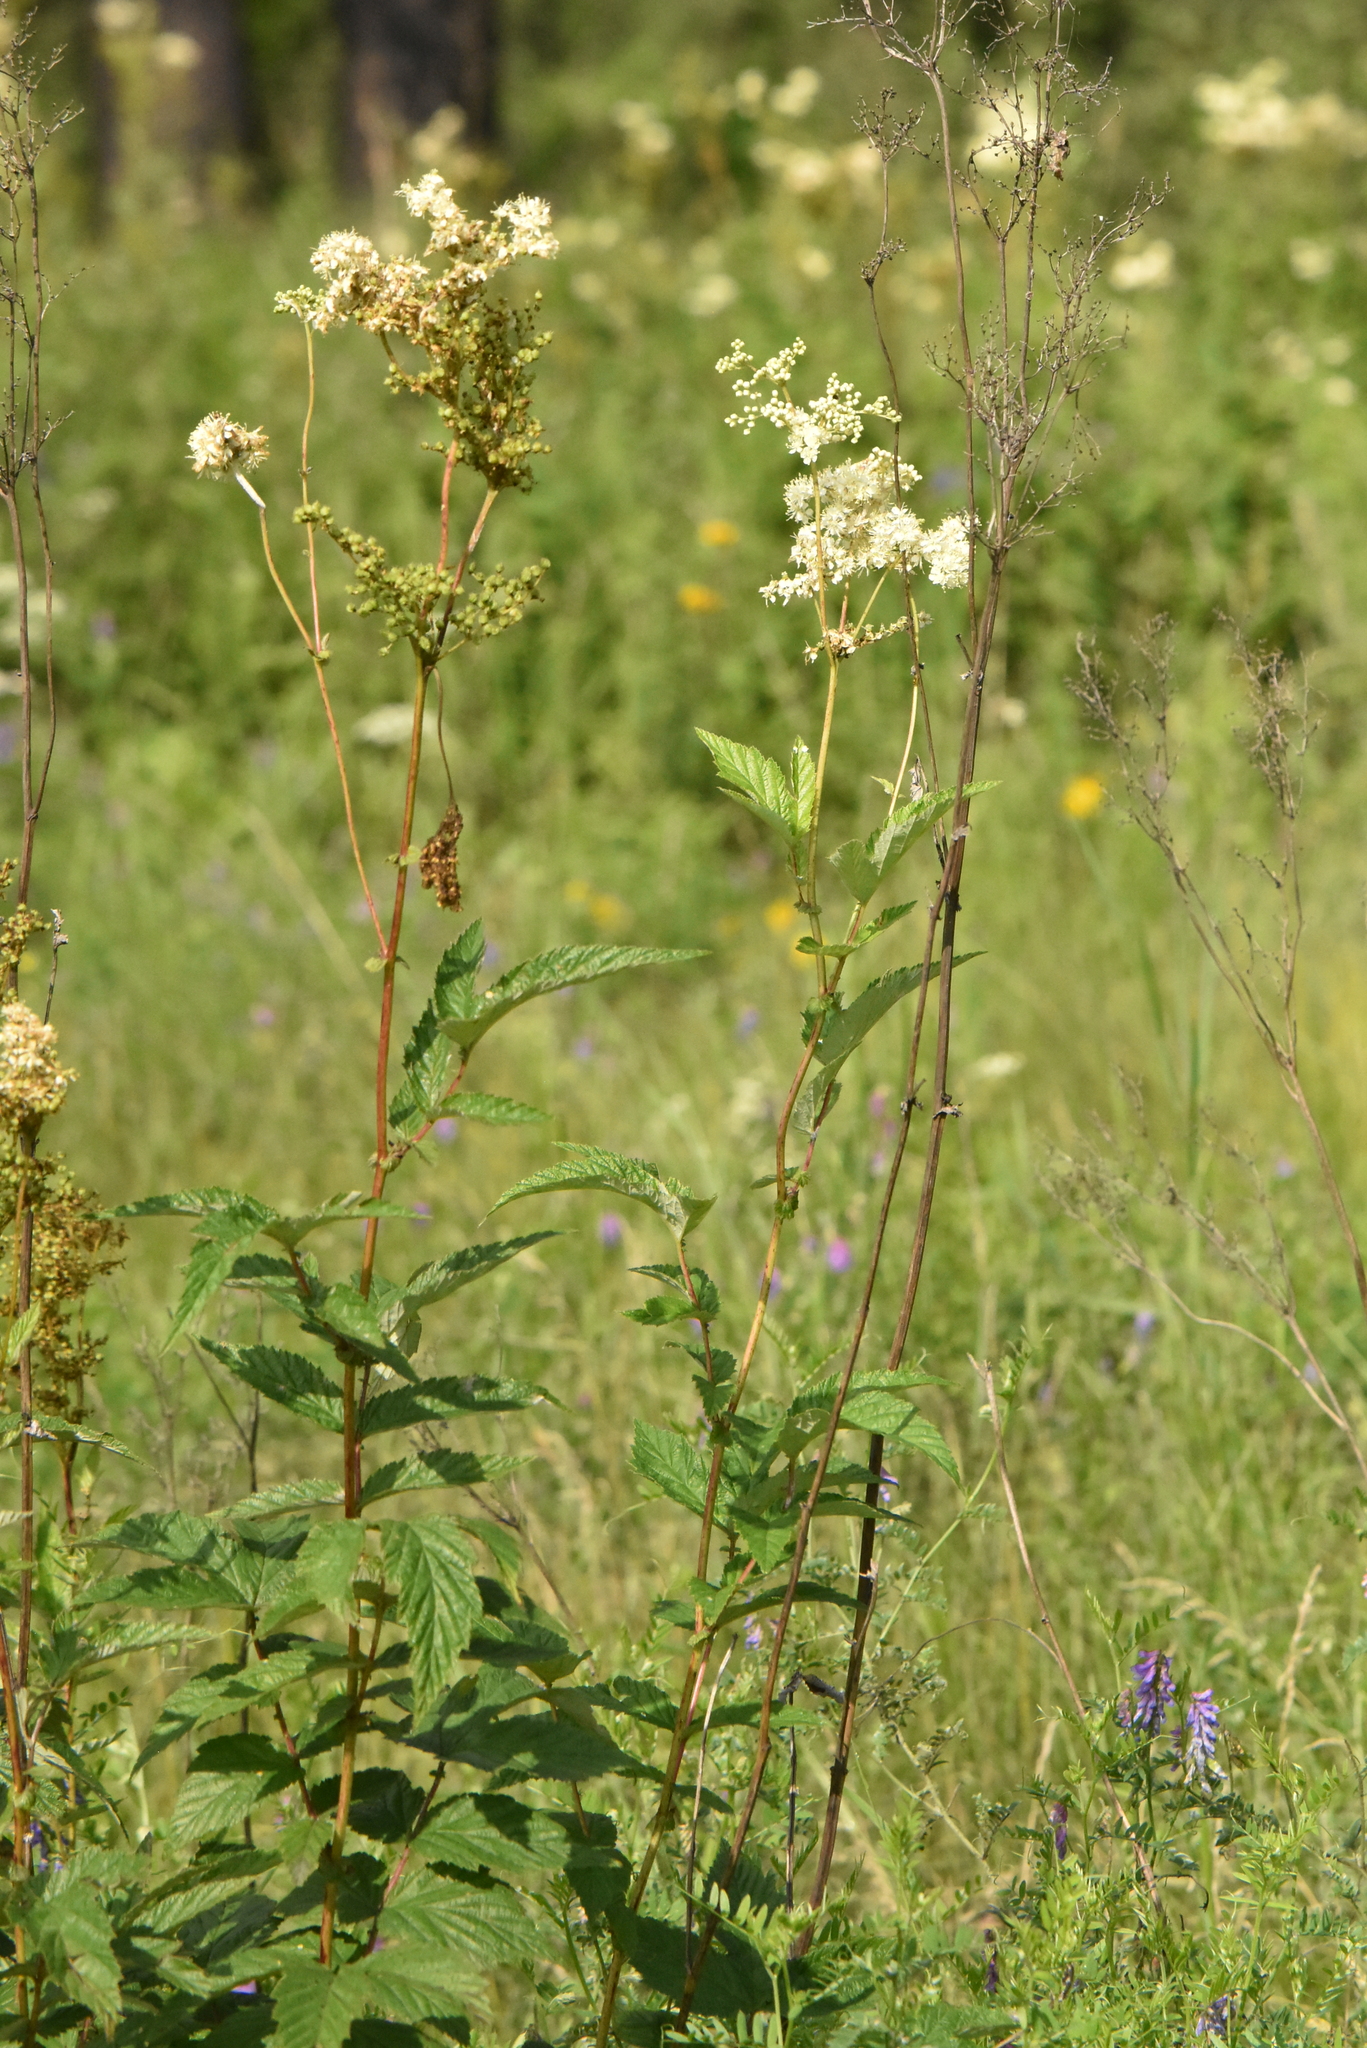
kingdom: Plantae
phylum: Tracheophyta
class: Magnoliopsida
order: Rosales
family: Rosaceae
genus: Filipendula
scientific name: Filipendula ulmaria
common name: Meadowsweet
